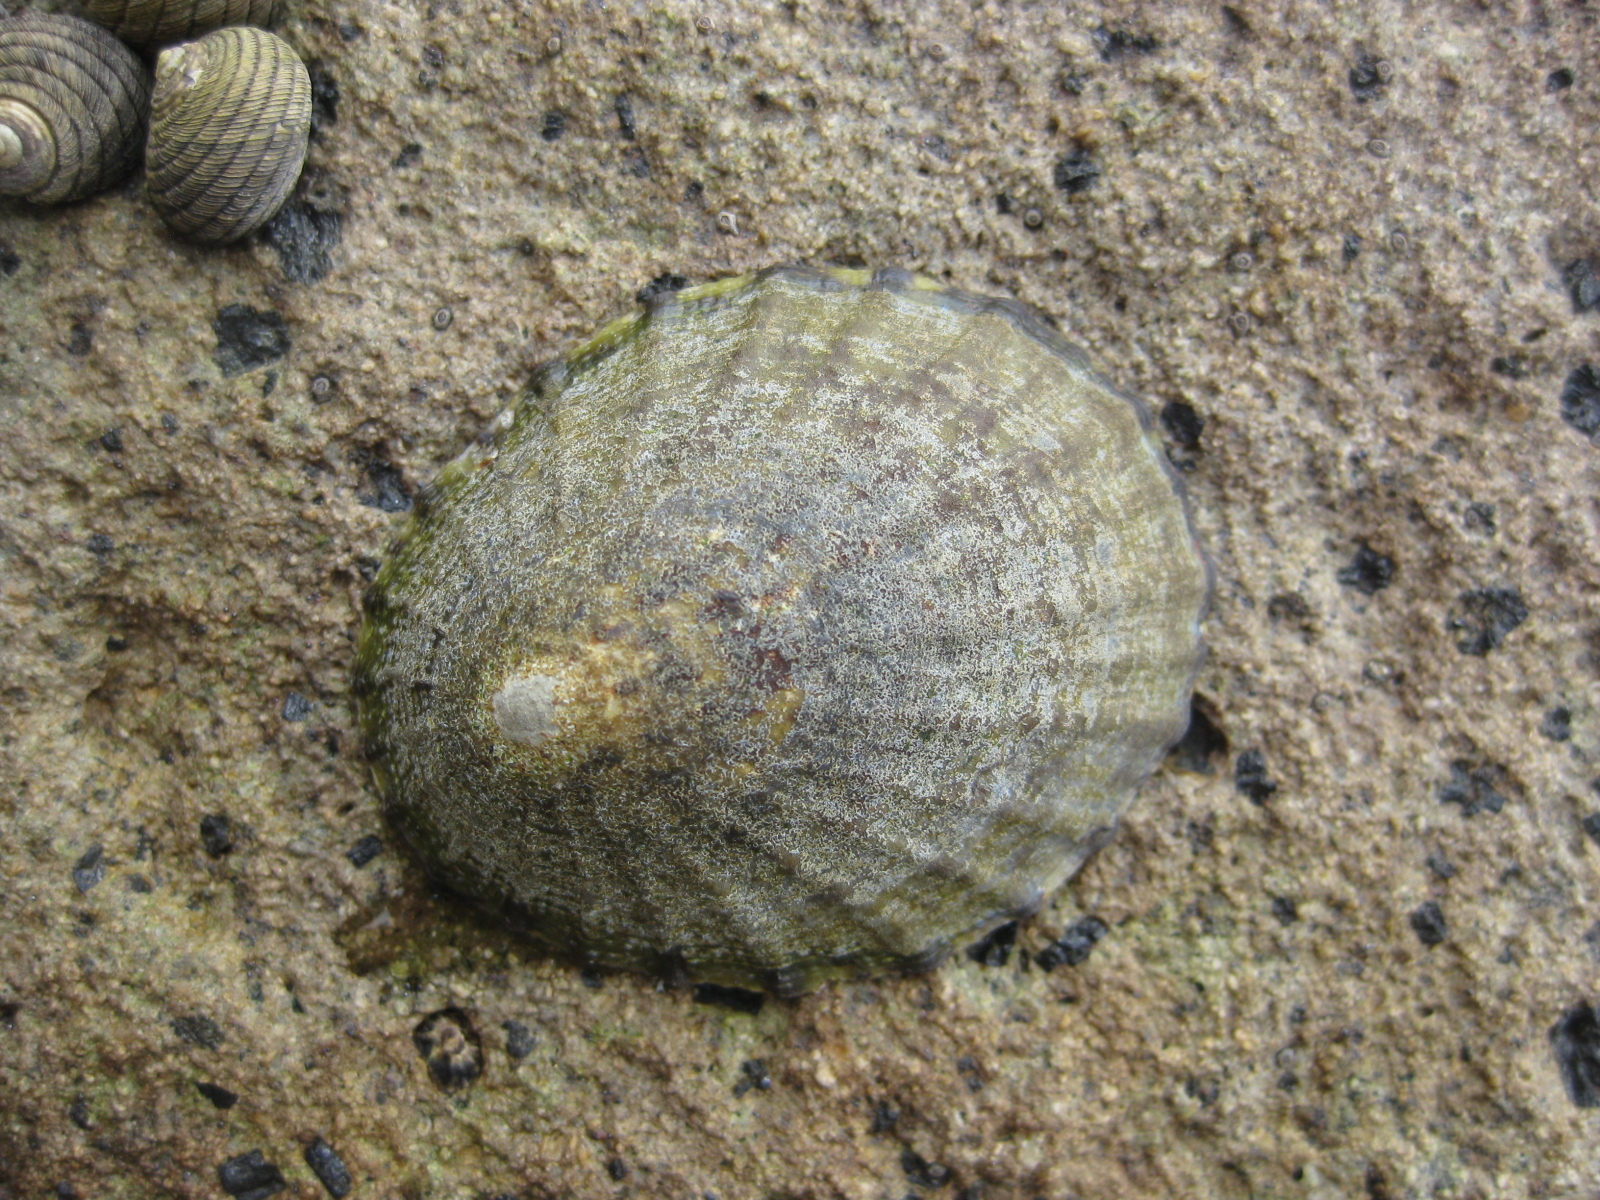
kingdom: Animalia
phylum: Mollusca
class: Gastropoda
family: Nacellidae
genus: Cellana
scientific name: Cellana radians
